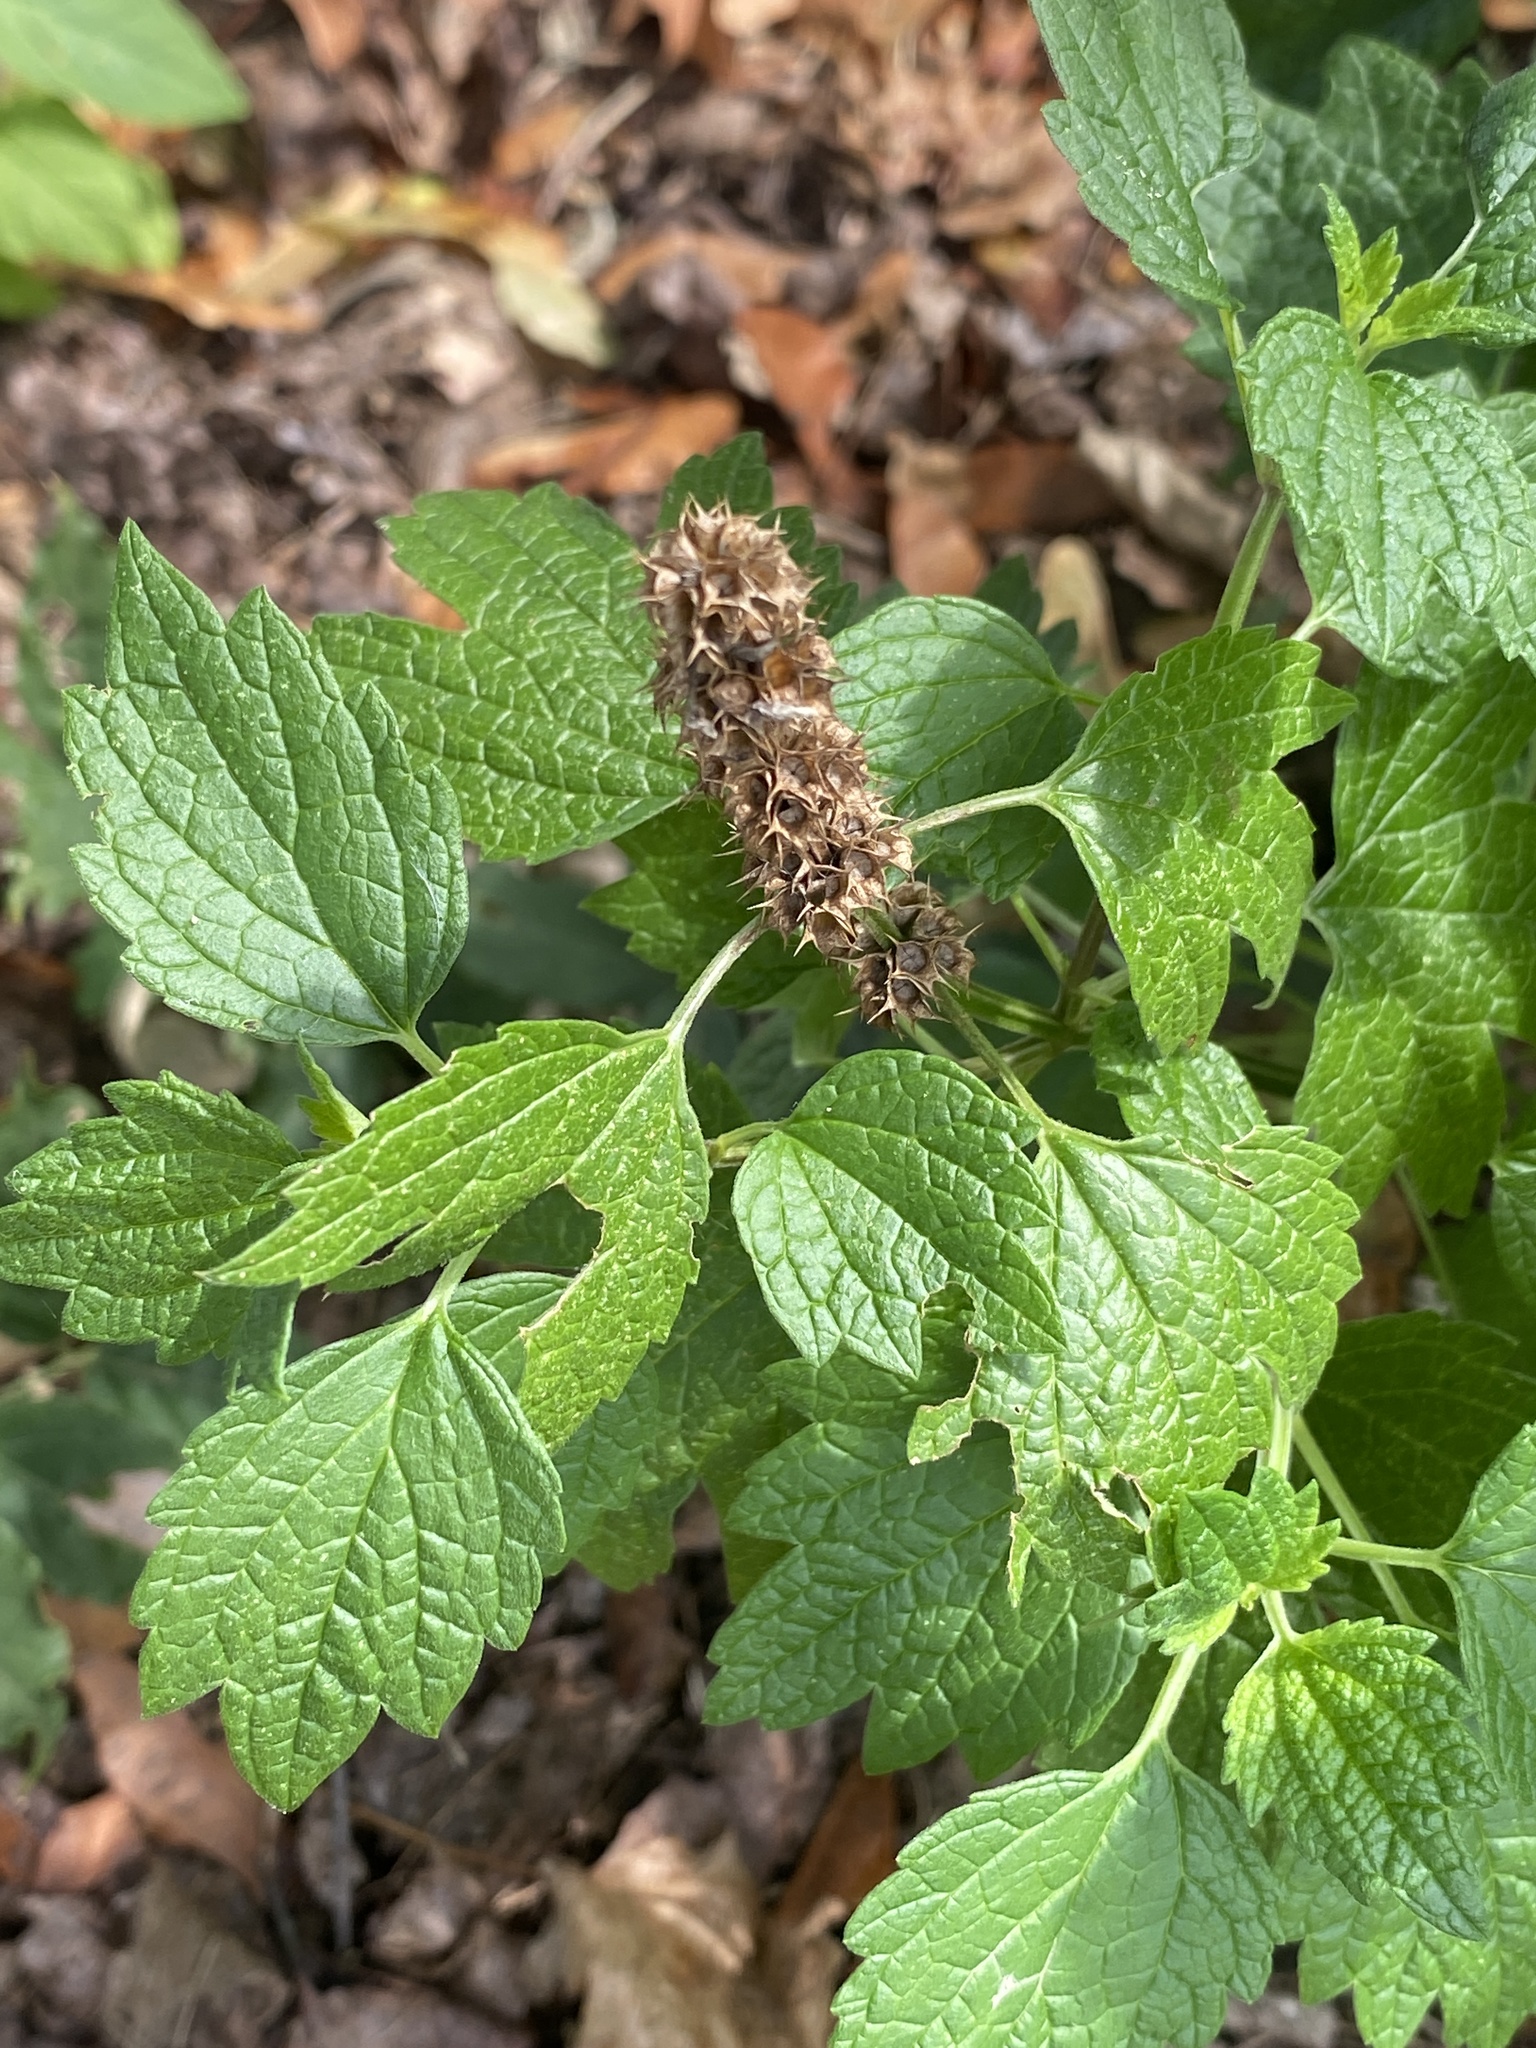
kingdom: Plantae
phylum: Tracheophyta
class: Magnoliopsida
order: Lamiales
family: Lamiaceae
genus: Leonurus
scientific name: Leonurus cardiaca
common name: Motherwort
